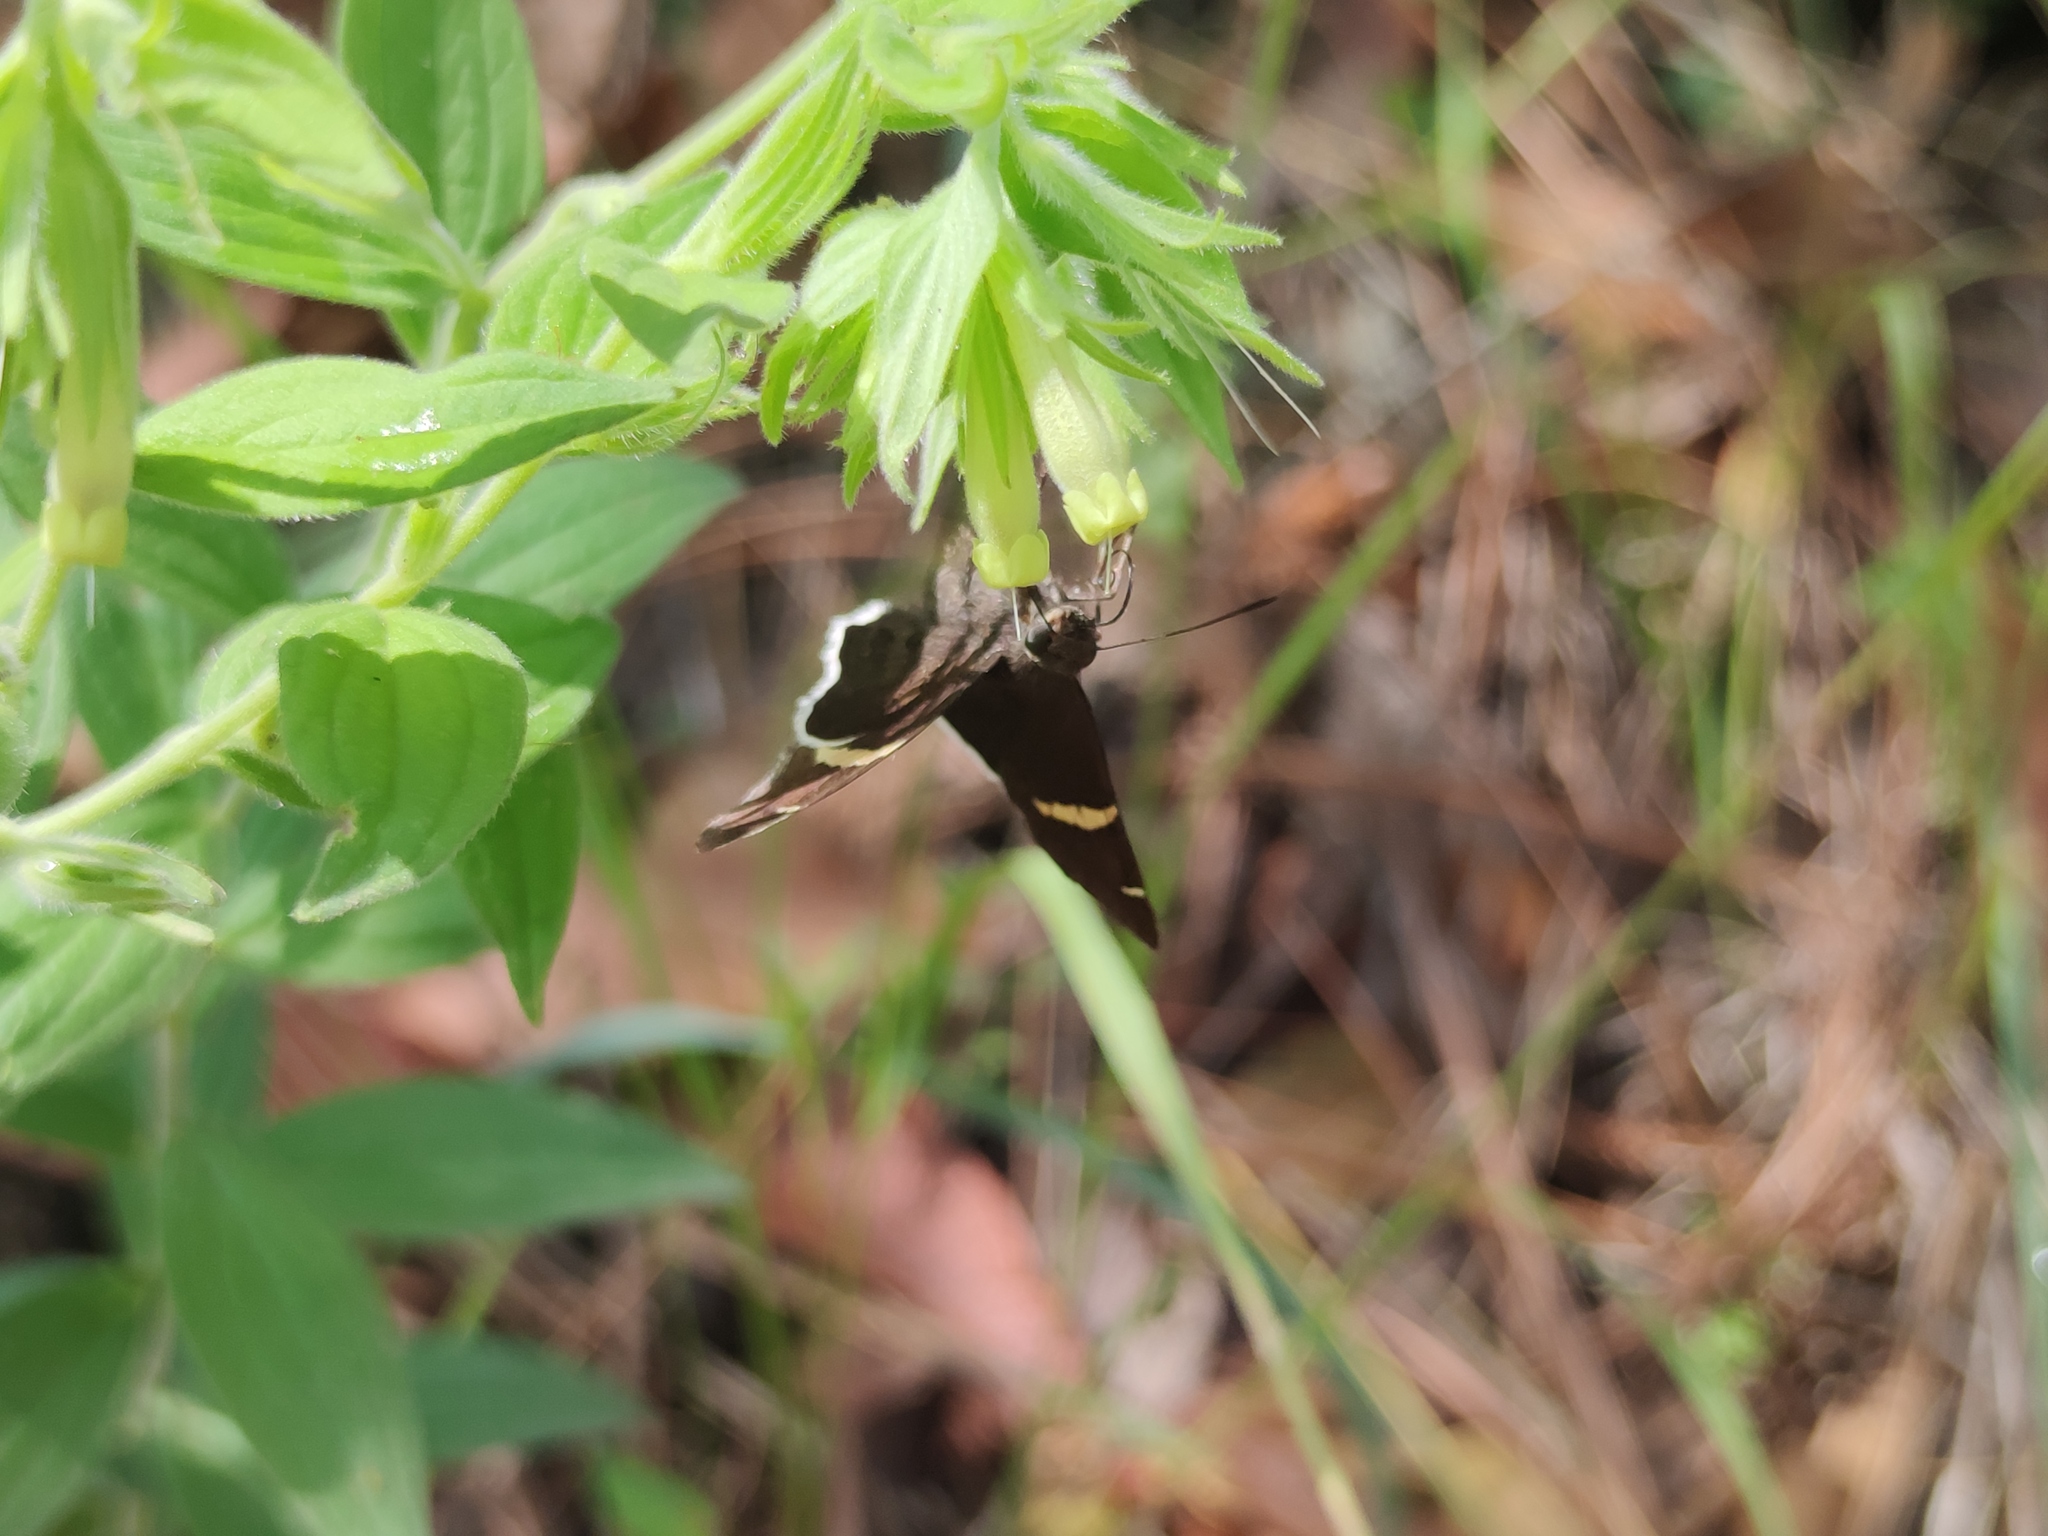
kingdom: Animalia
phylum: Arthropoda
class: Insecta
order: Lepidoptera
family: Hesperiidae
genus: Thorybes
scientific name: Thorybes cincta
